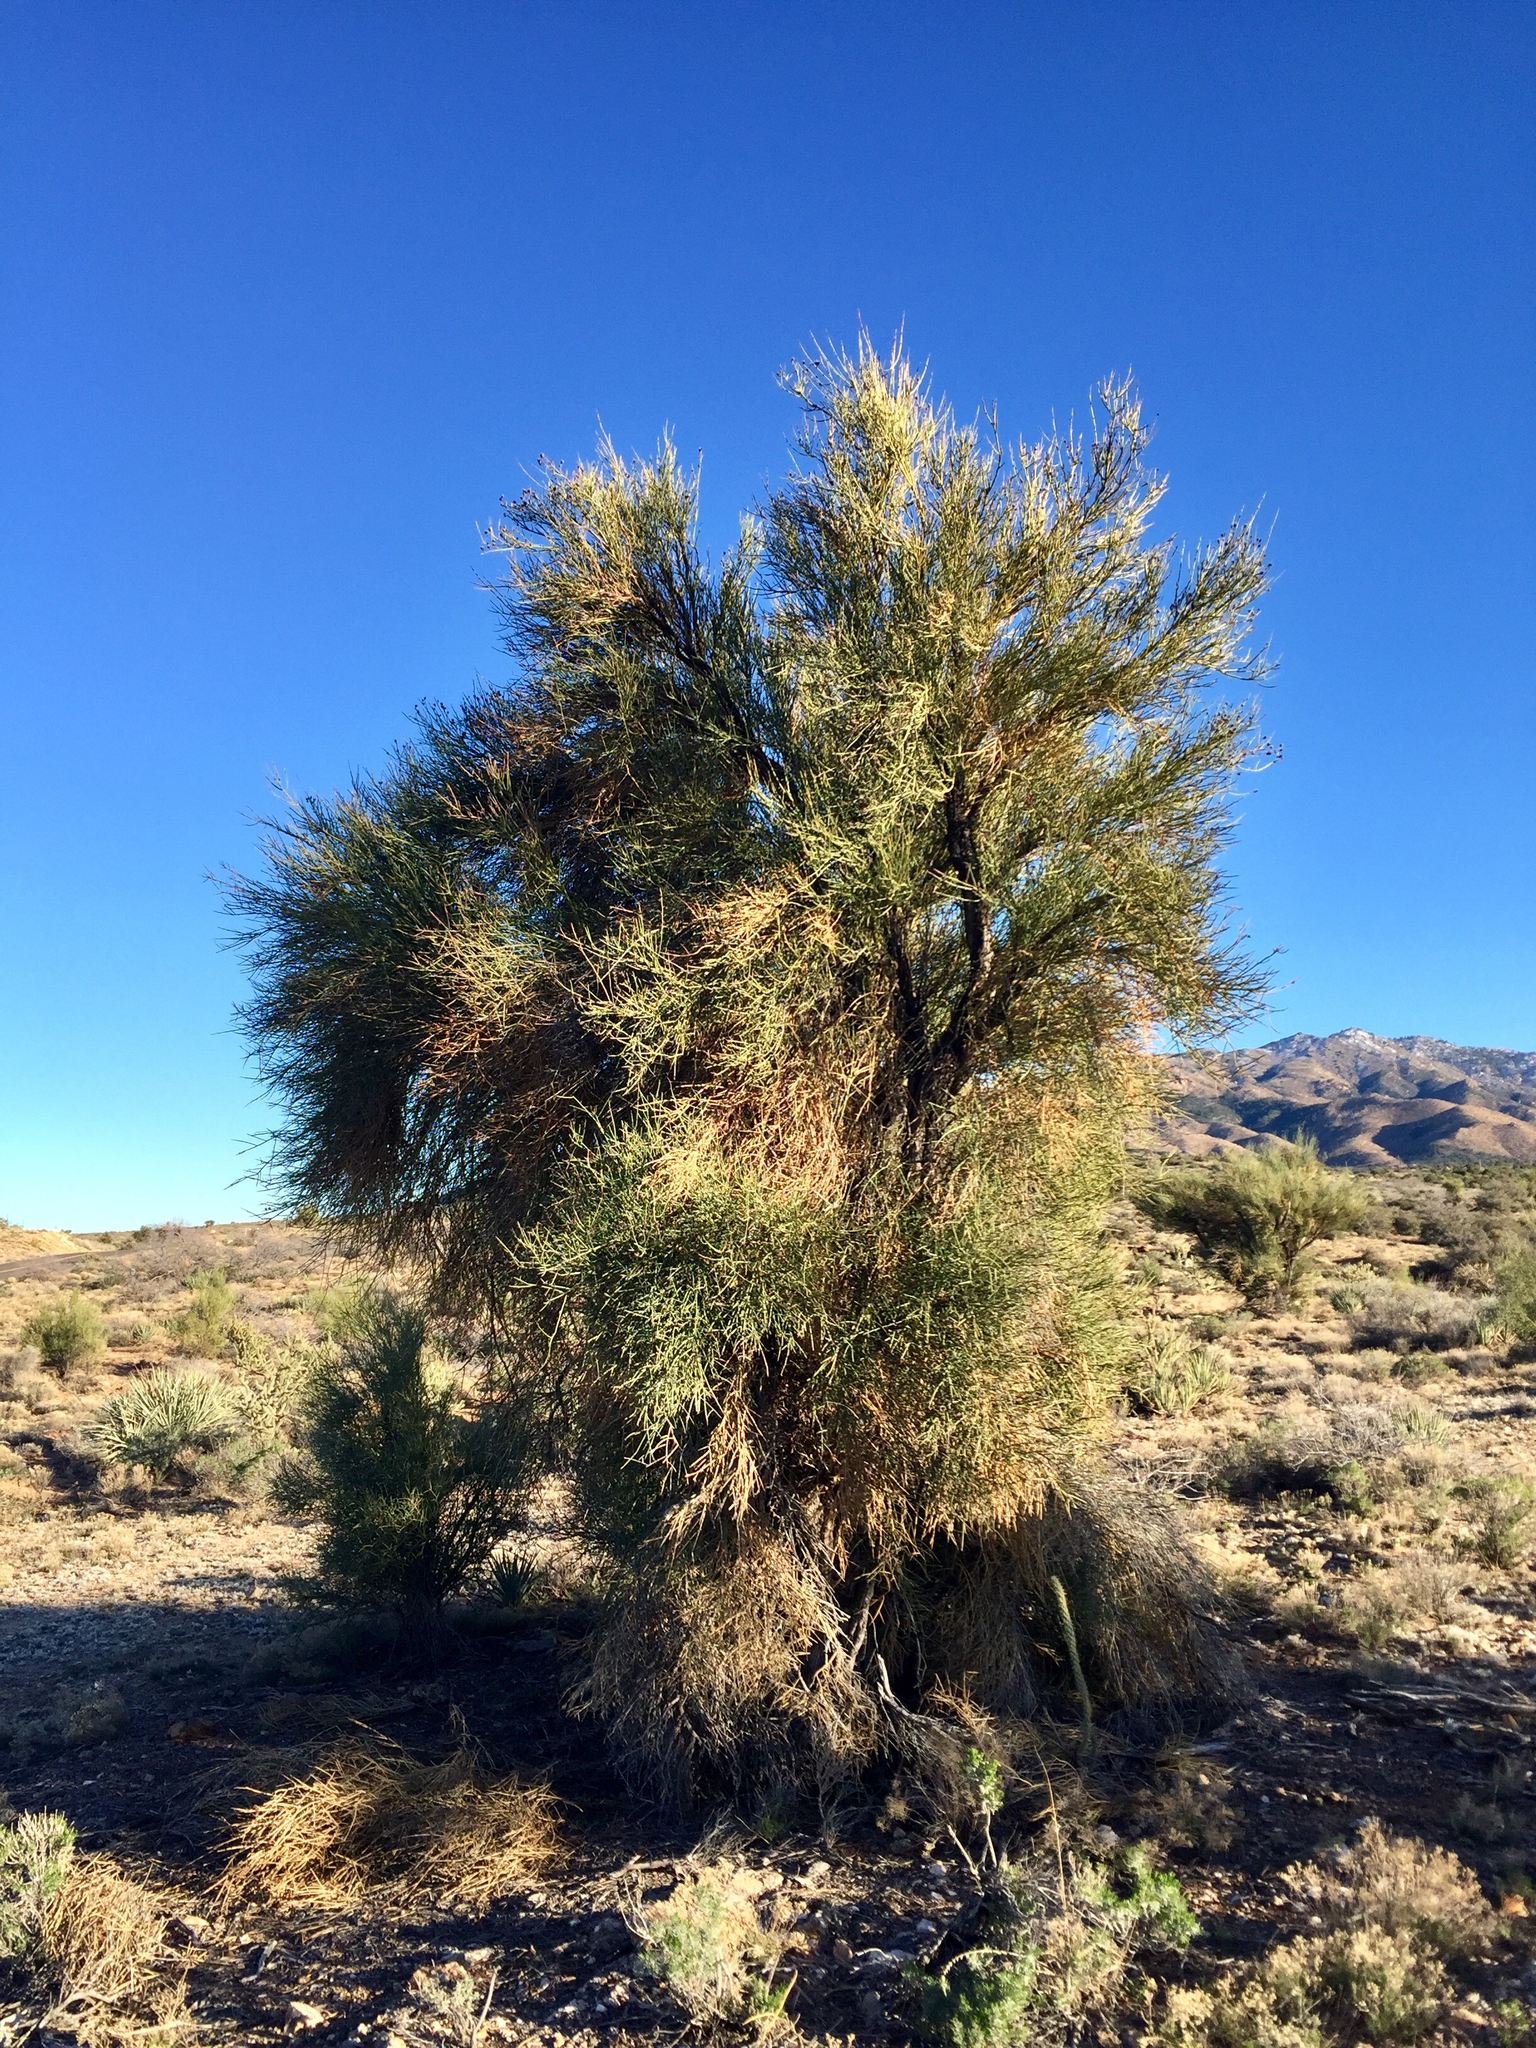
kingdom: Plantae
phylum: Tracheophyta
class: Magnoliopsida
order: Celastrales
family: Celastraceae
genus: Canotia
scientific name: Canotia holacantha
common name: Crucifixion thorns
